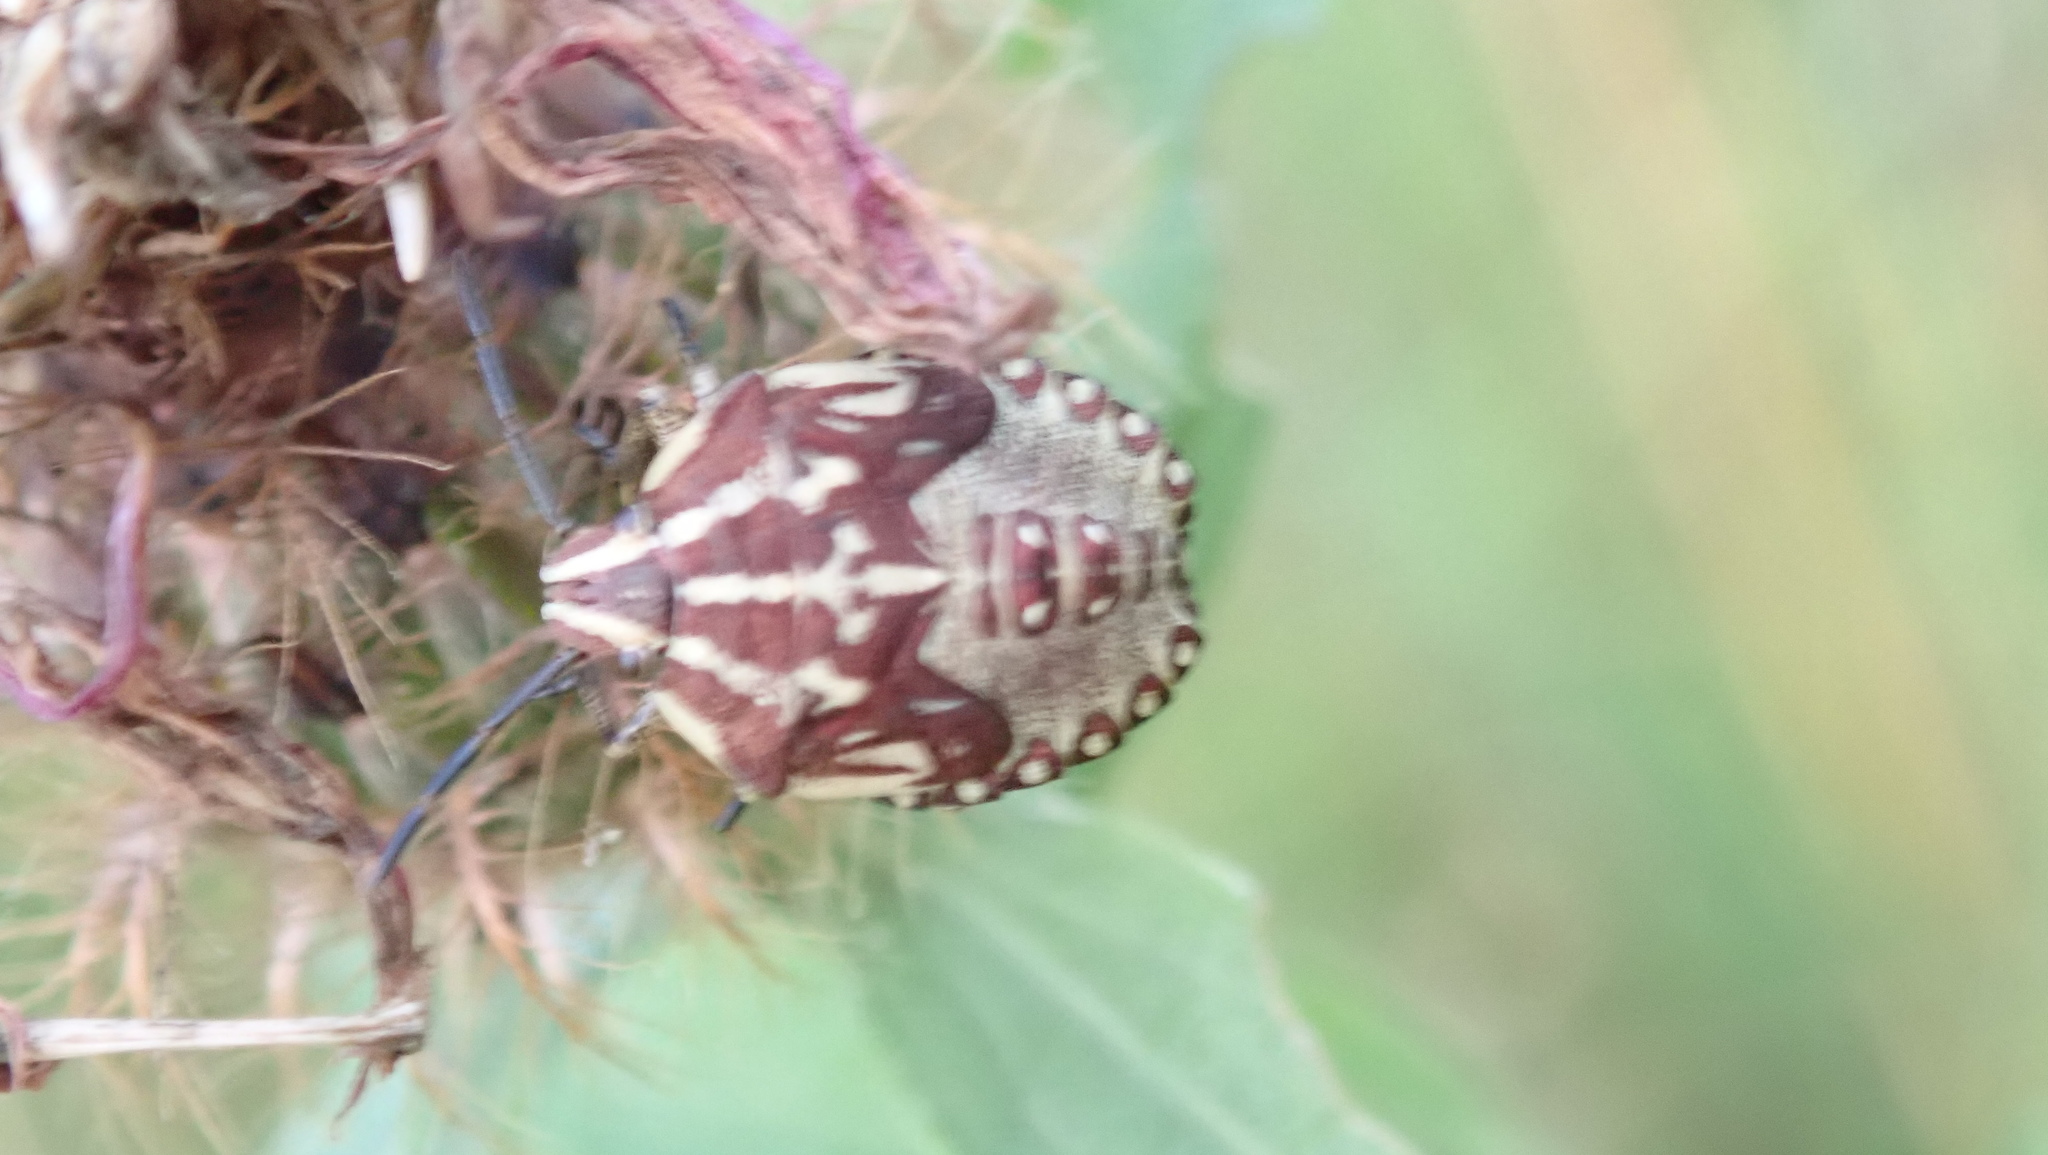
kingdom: Animalia
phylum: Arthropoda
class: Insecta
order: Hemiptera
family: Pentatomidae
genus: Carpocoris
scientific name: Carpocoris purpureipennis
